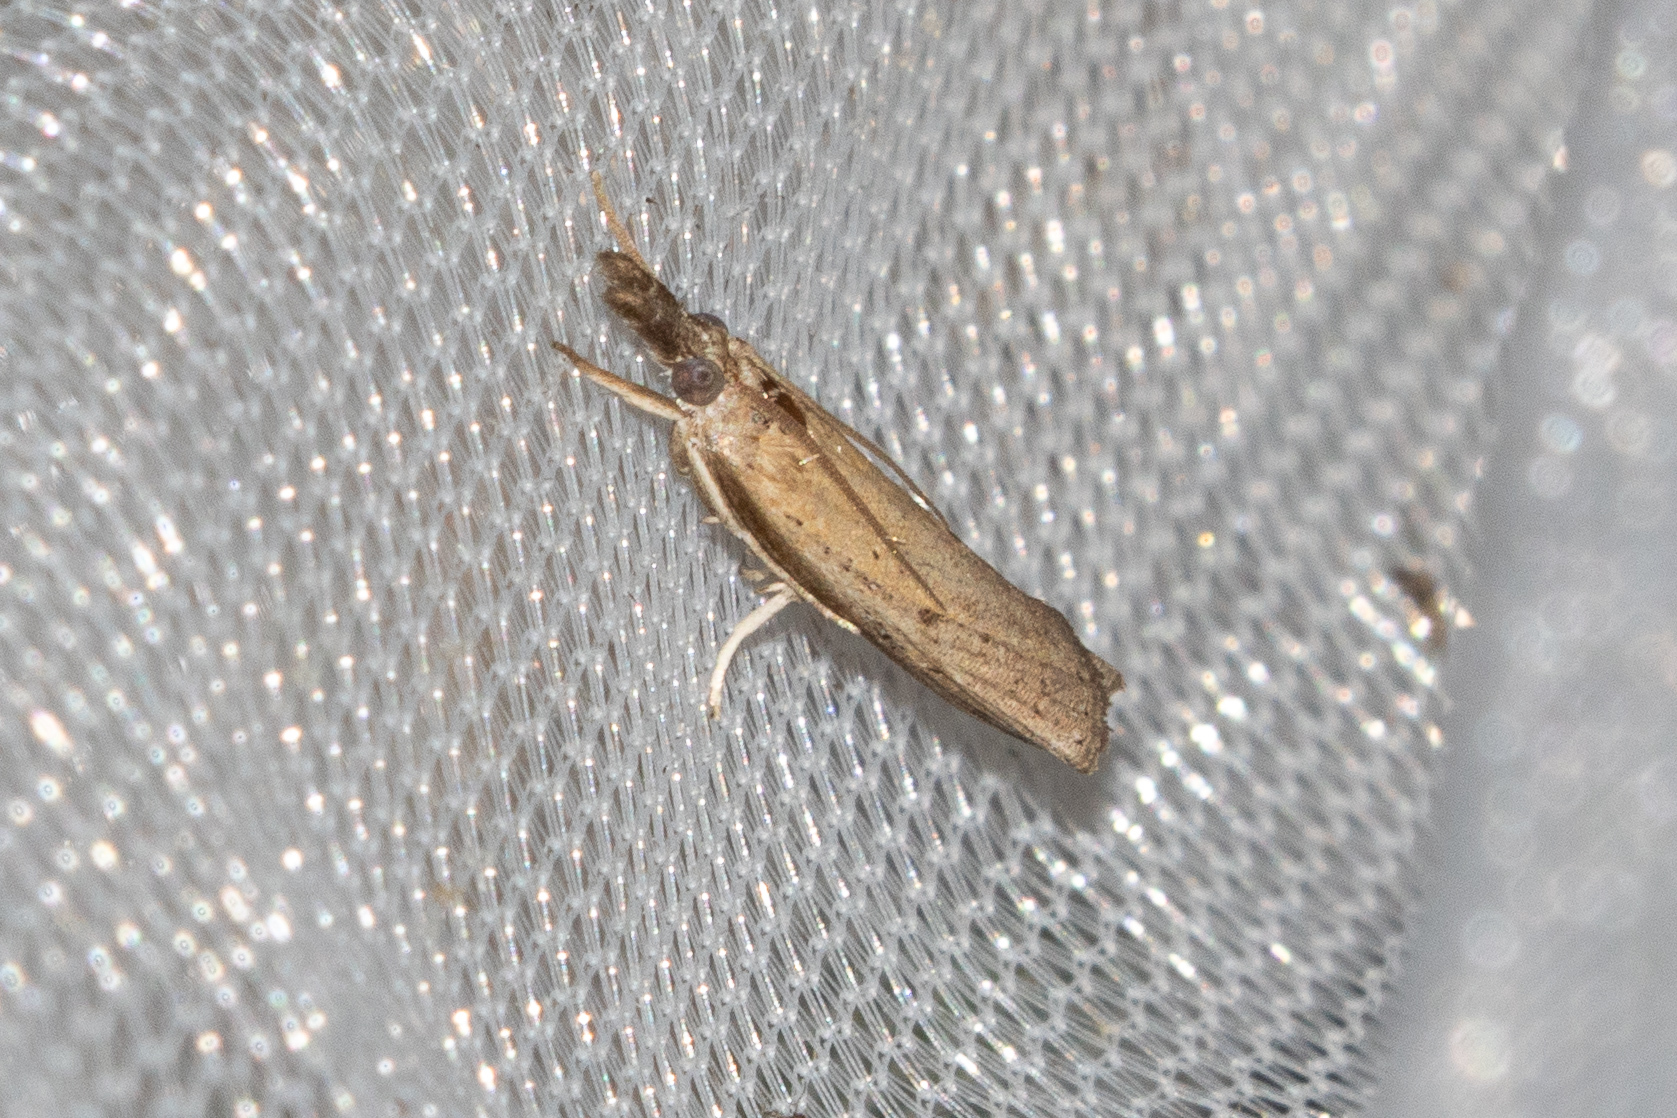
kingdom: Animalia
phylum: Arthropoda
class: Insecta
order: Lepidoptera
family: Crambidae
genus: Fissicrambus
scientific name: Fissicrambus mutabilis
